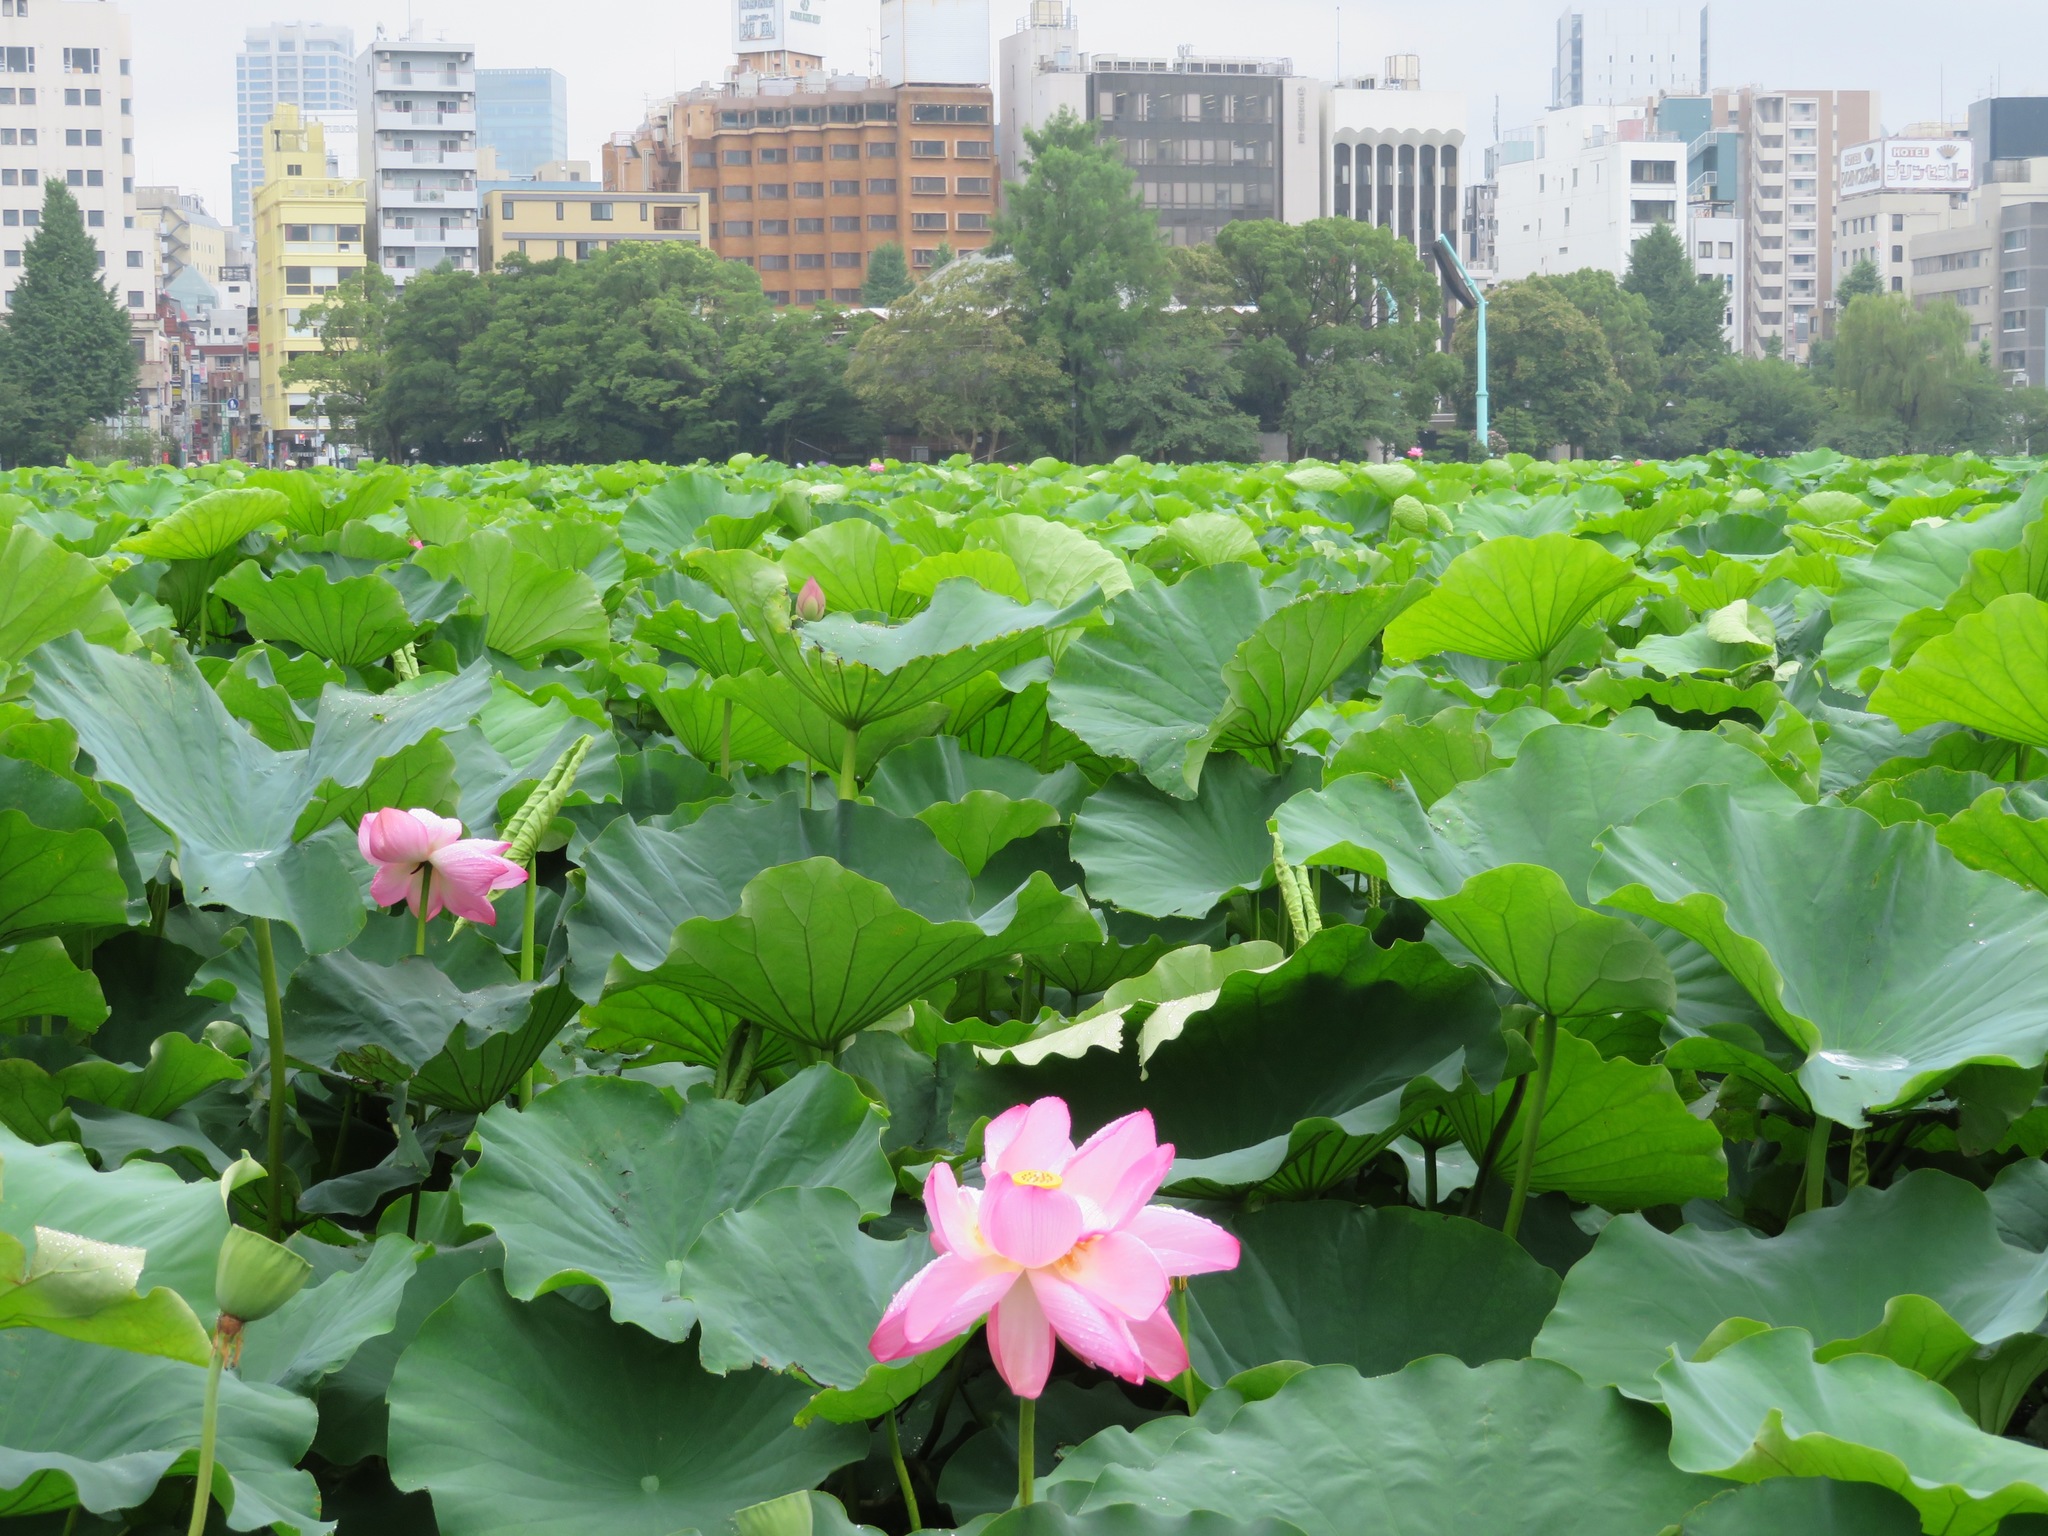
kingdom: Plantae
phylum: Tracheophyta
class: Magnoliopsida
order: Proteales
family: Nelumbonaceae
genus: Nelumbo
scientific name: Nelumbo nucifera
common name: Sacred lotus
